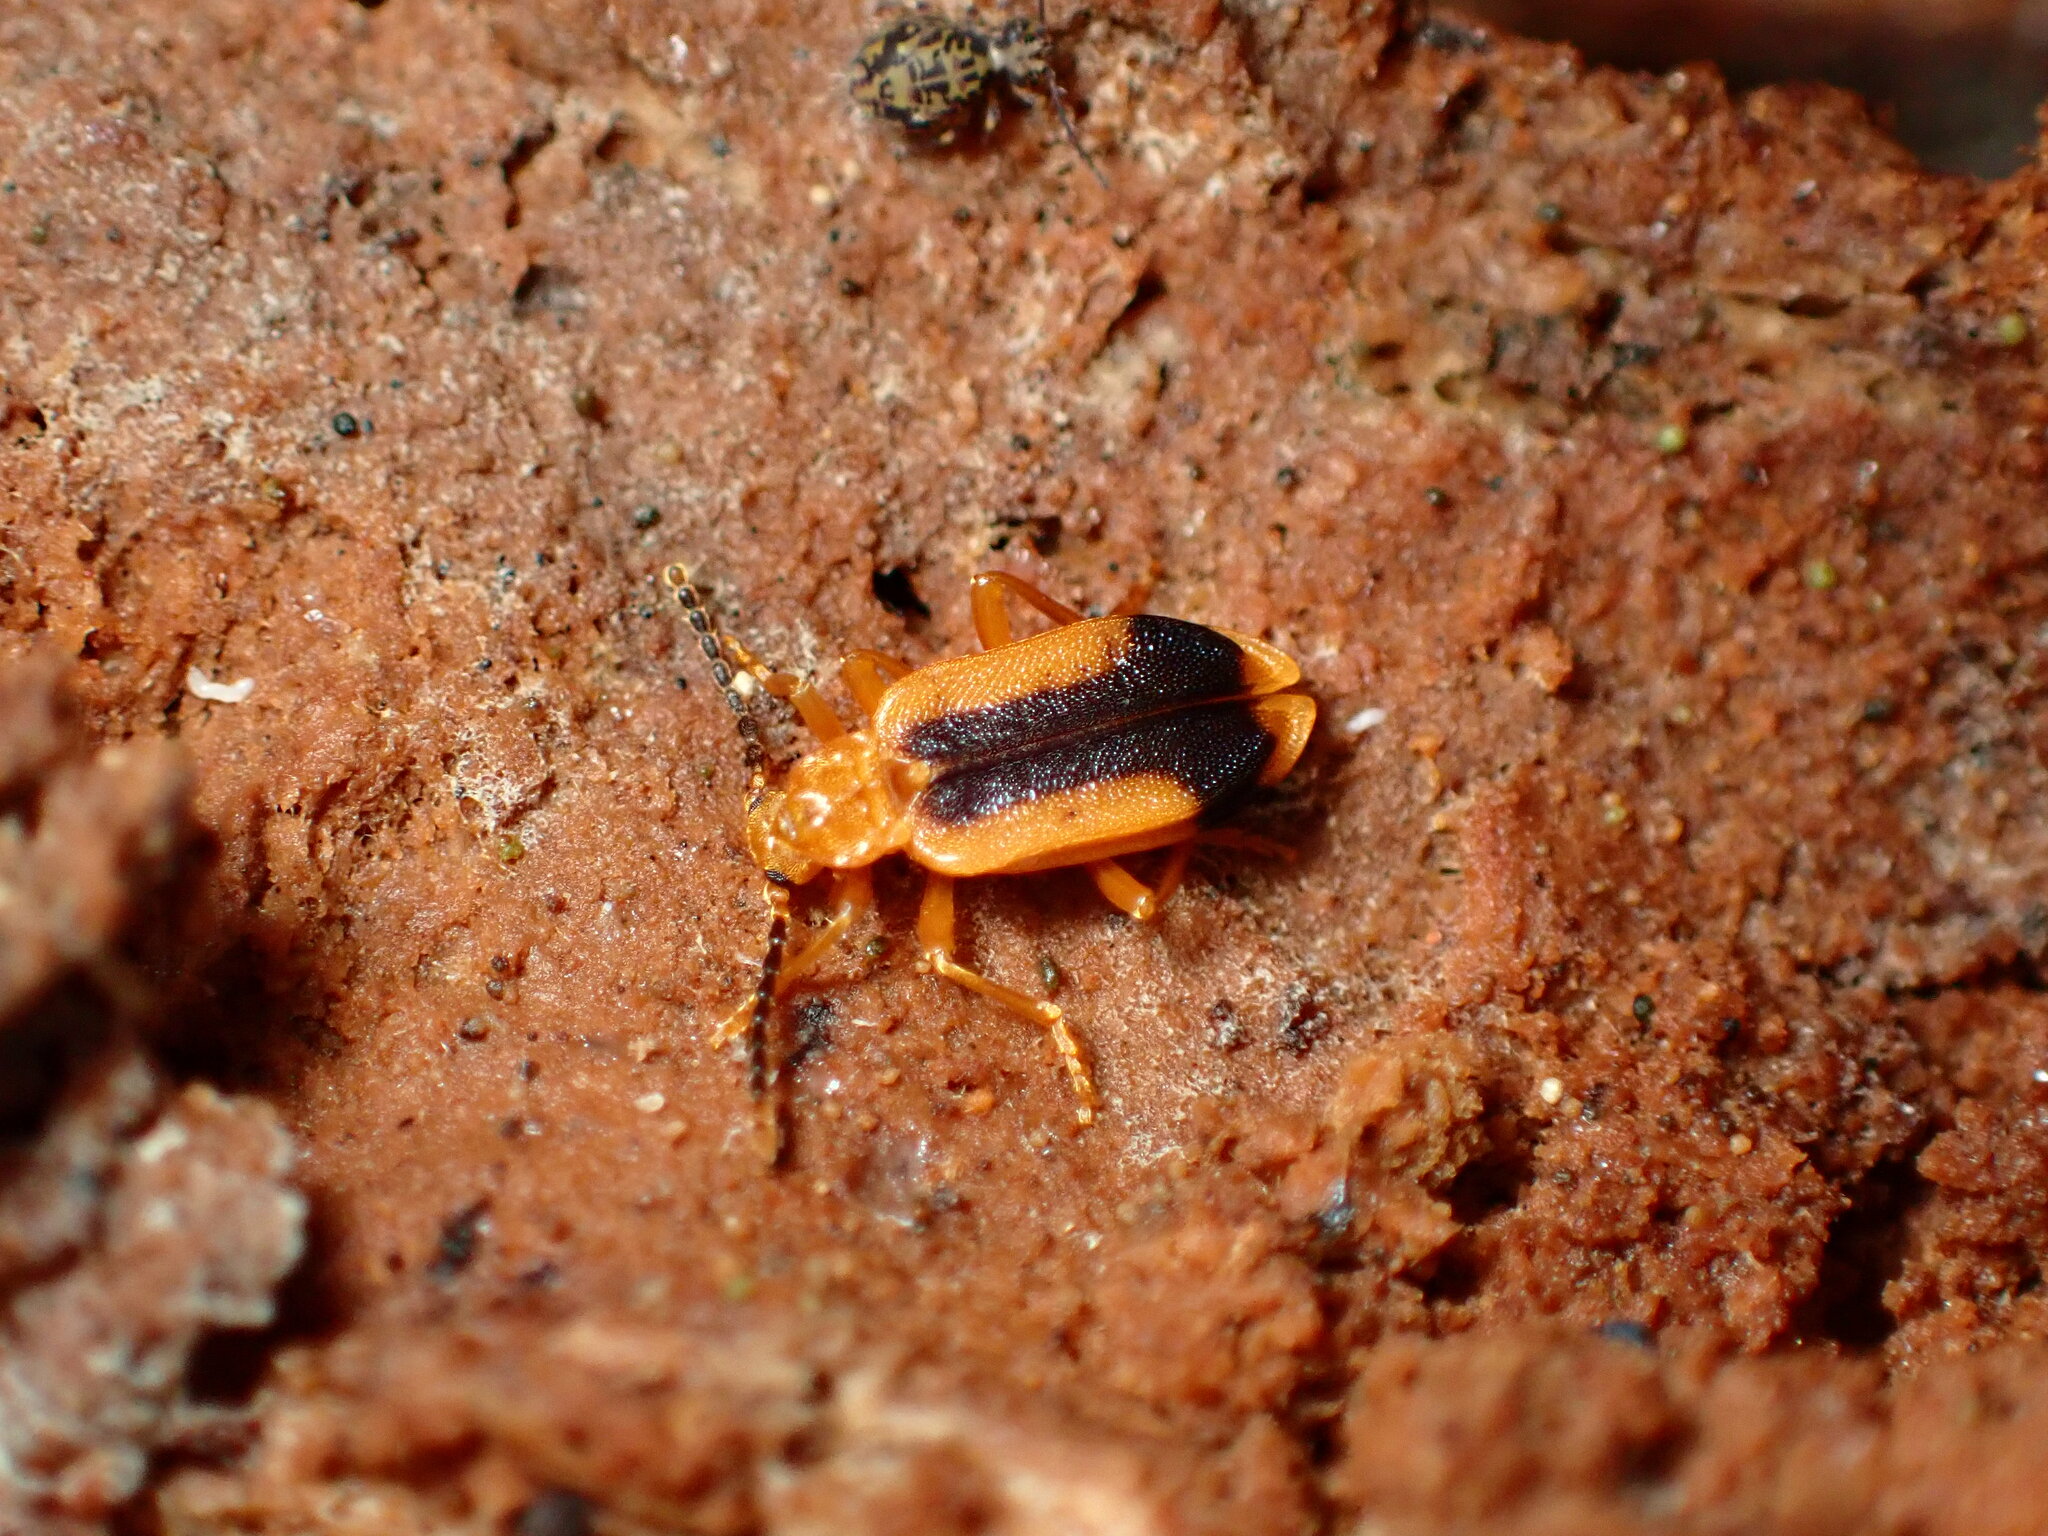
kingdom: Animalia
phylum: Arthropoda
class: Insecta
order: Coleoptera
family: Anthicidae
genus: Ischalia
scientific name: Ischalia californica
